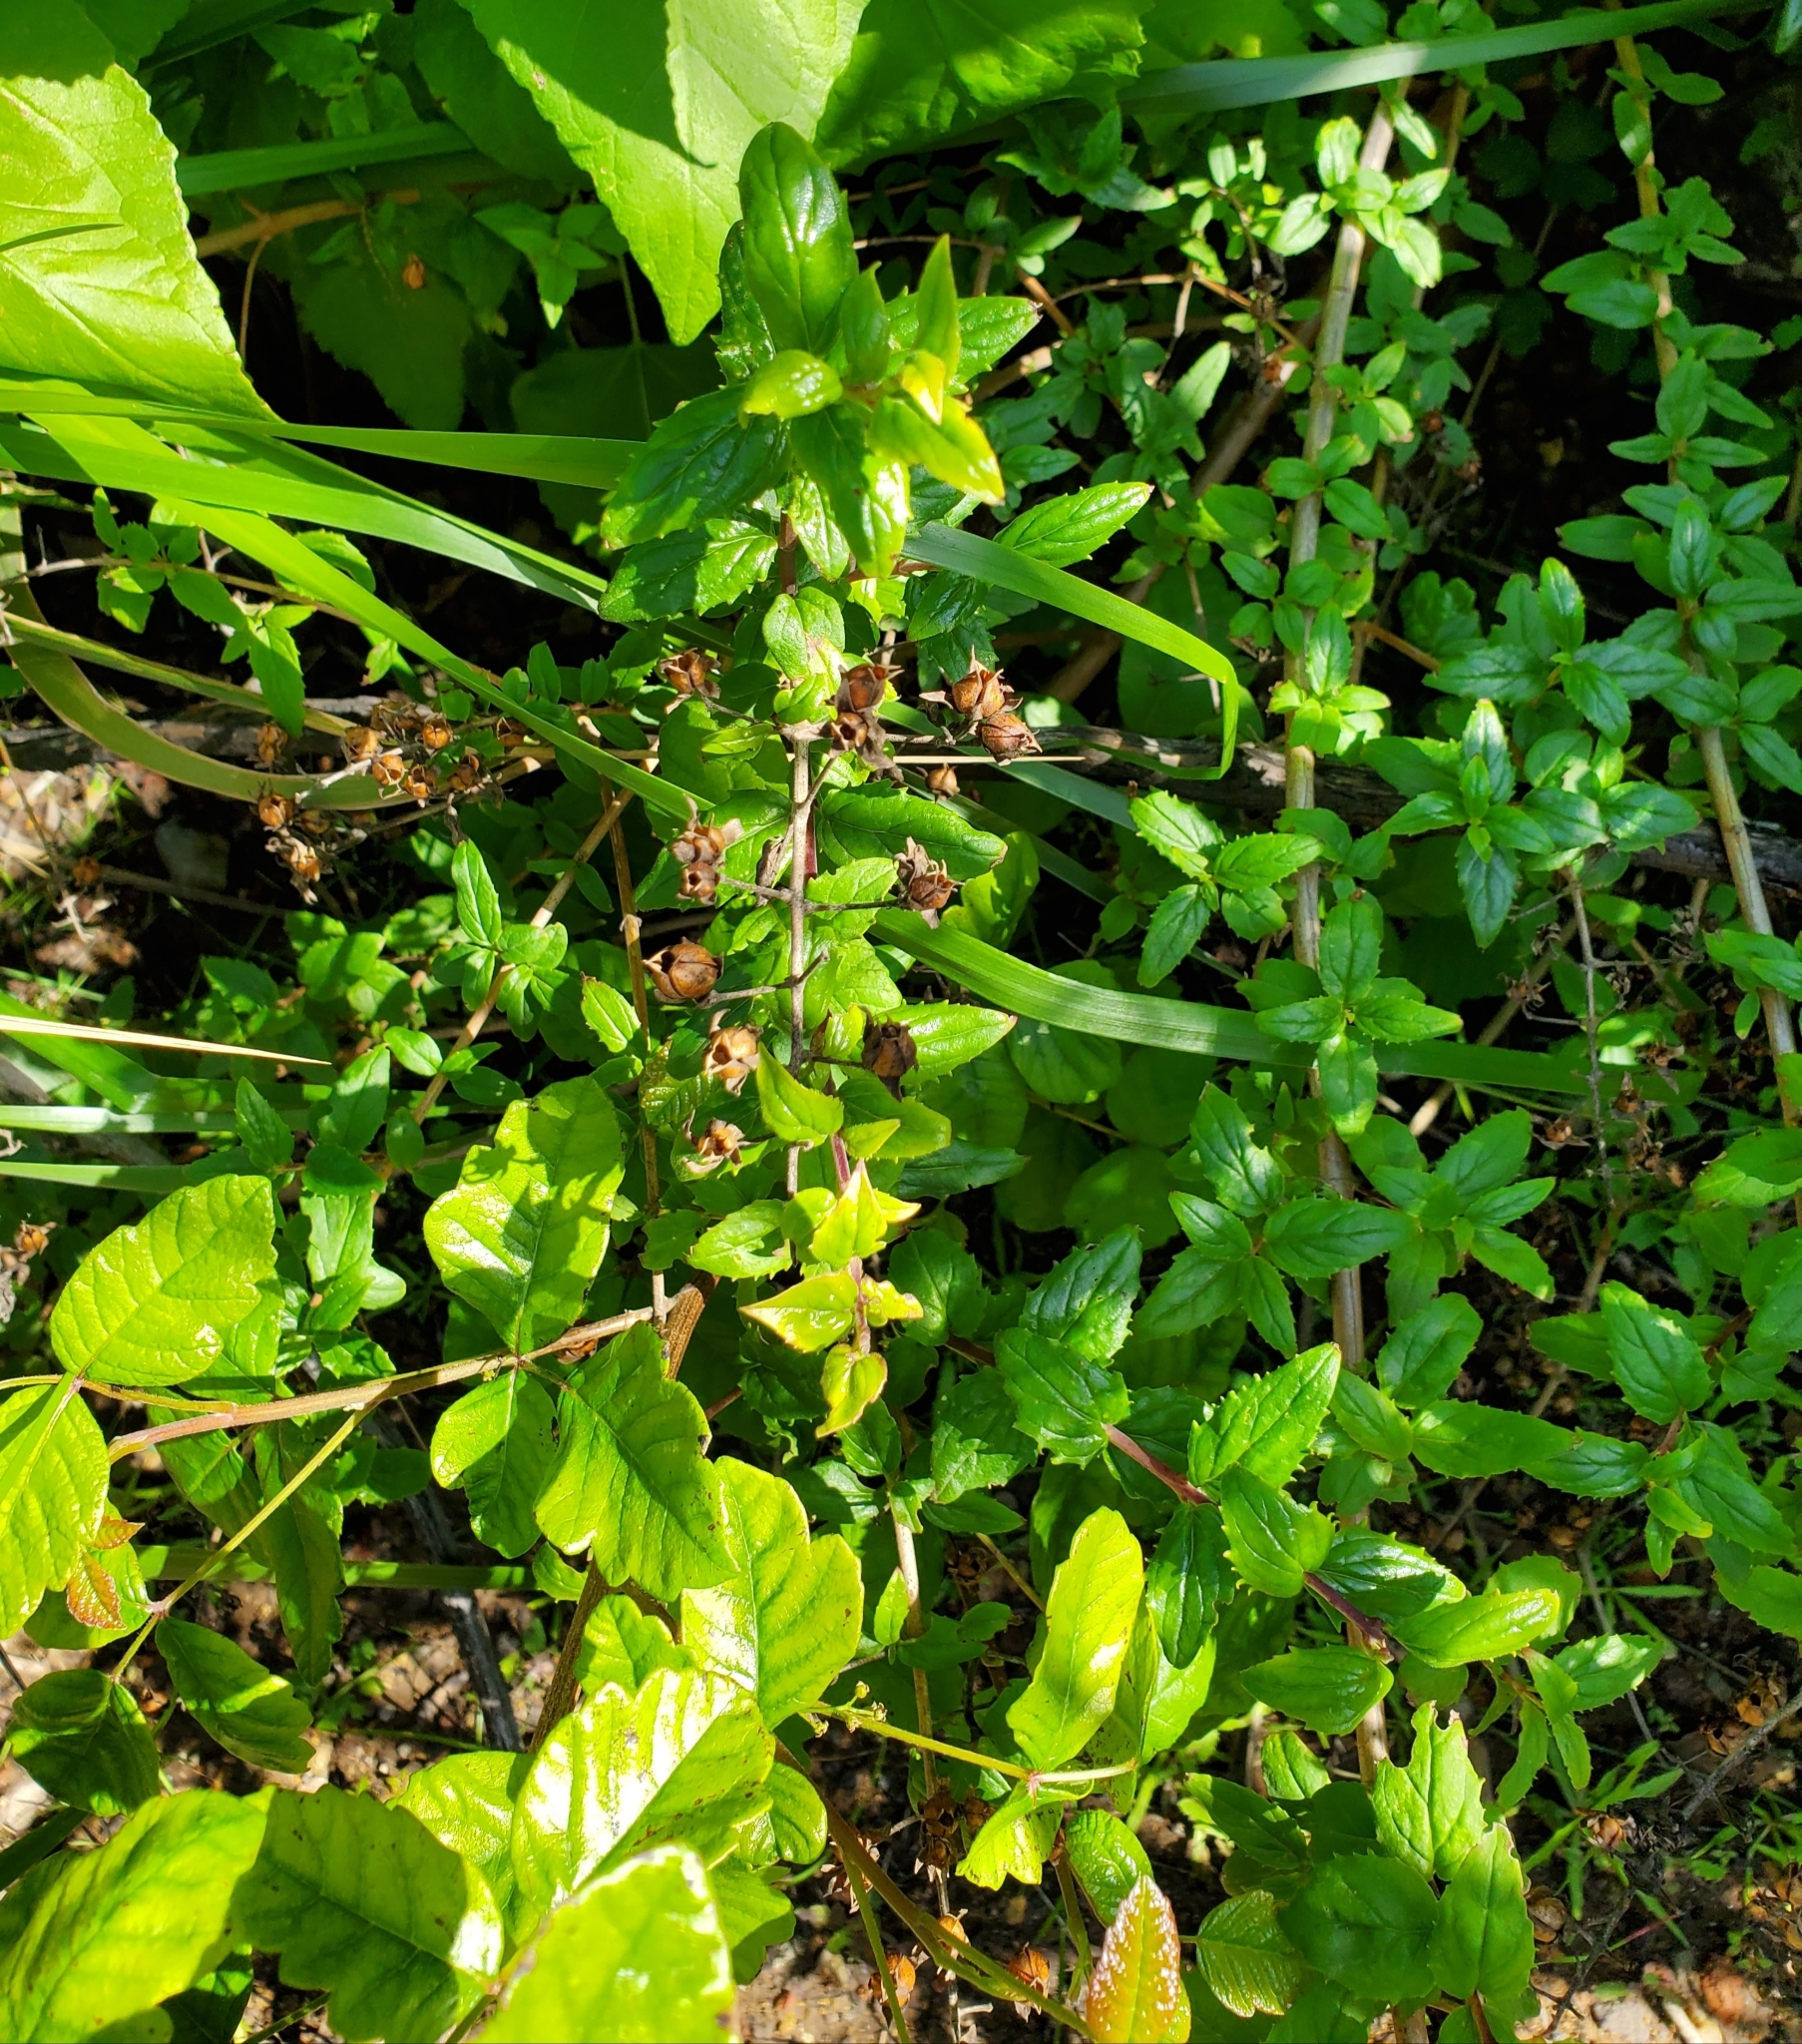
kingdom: Plantae
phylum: Tracheophyta
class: Magnoliopsida
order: Lamiales
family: Plantaginaceae
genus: Keckiella
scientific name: Keckiella cordifolia
